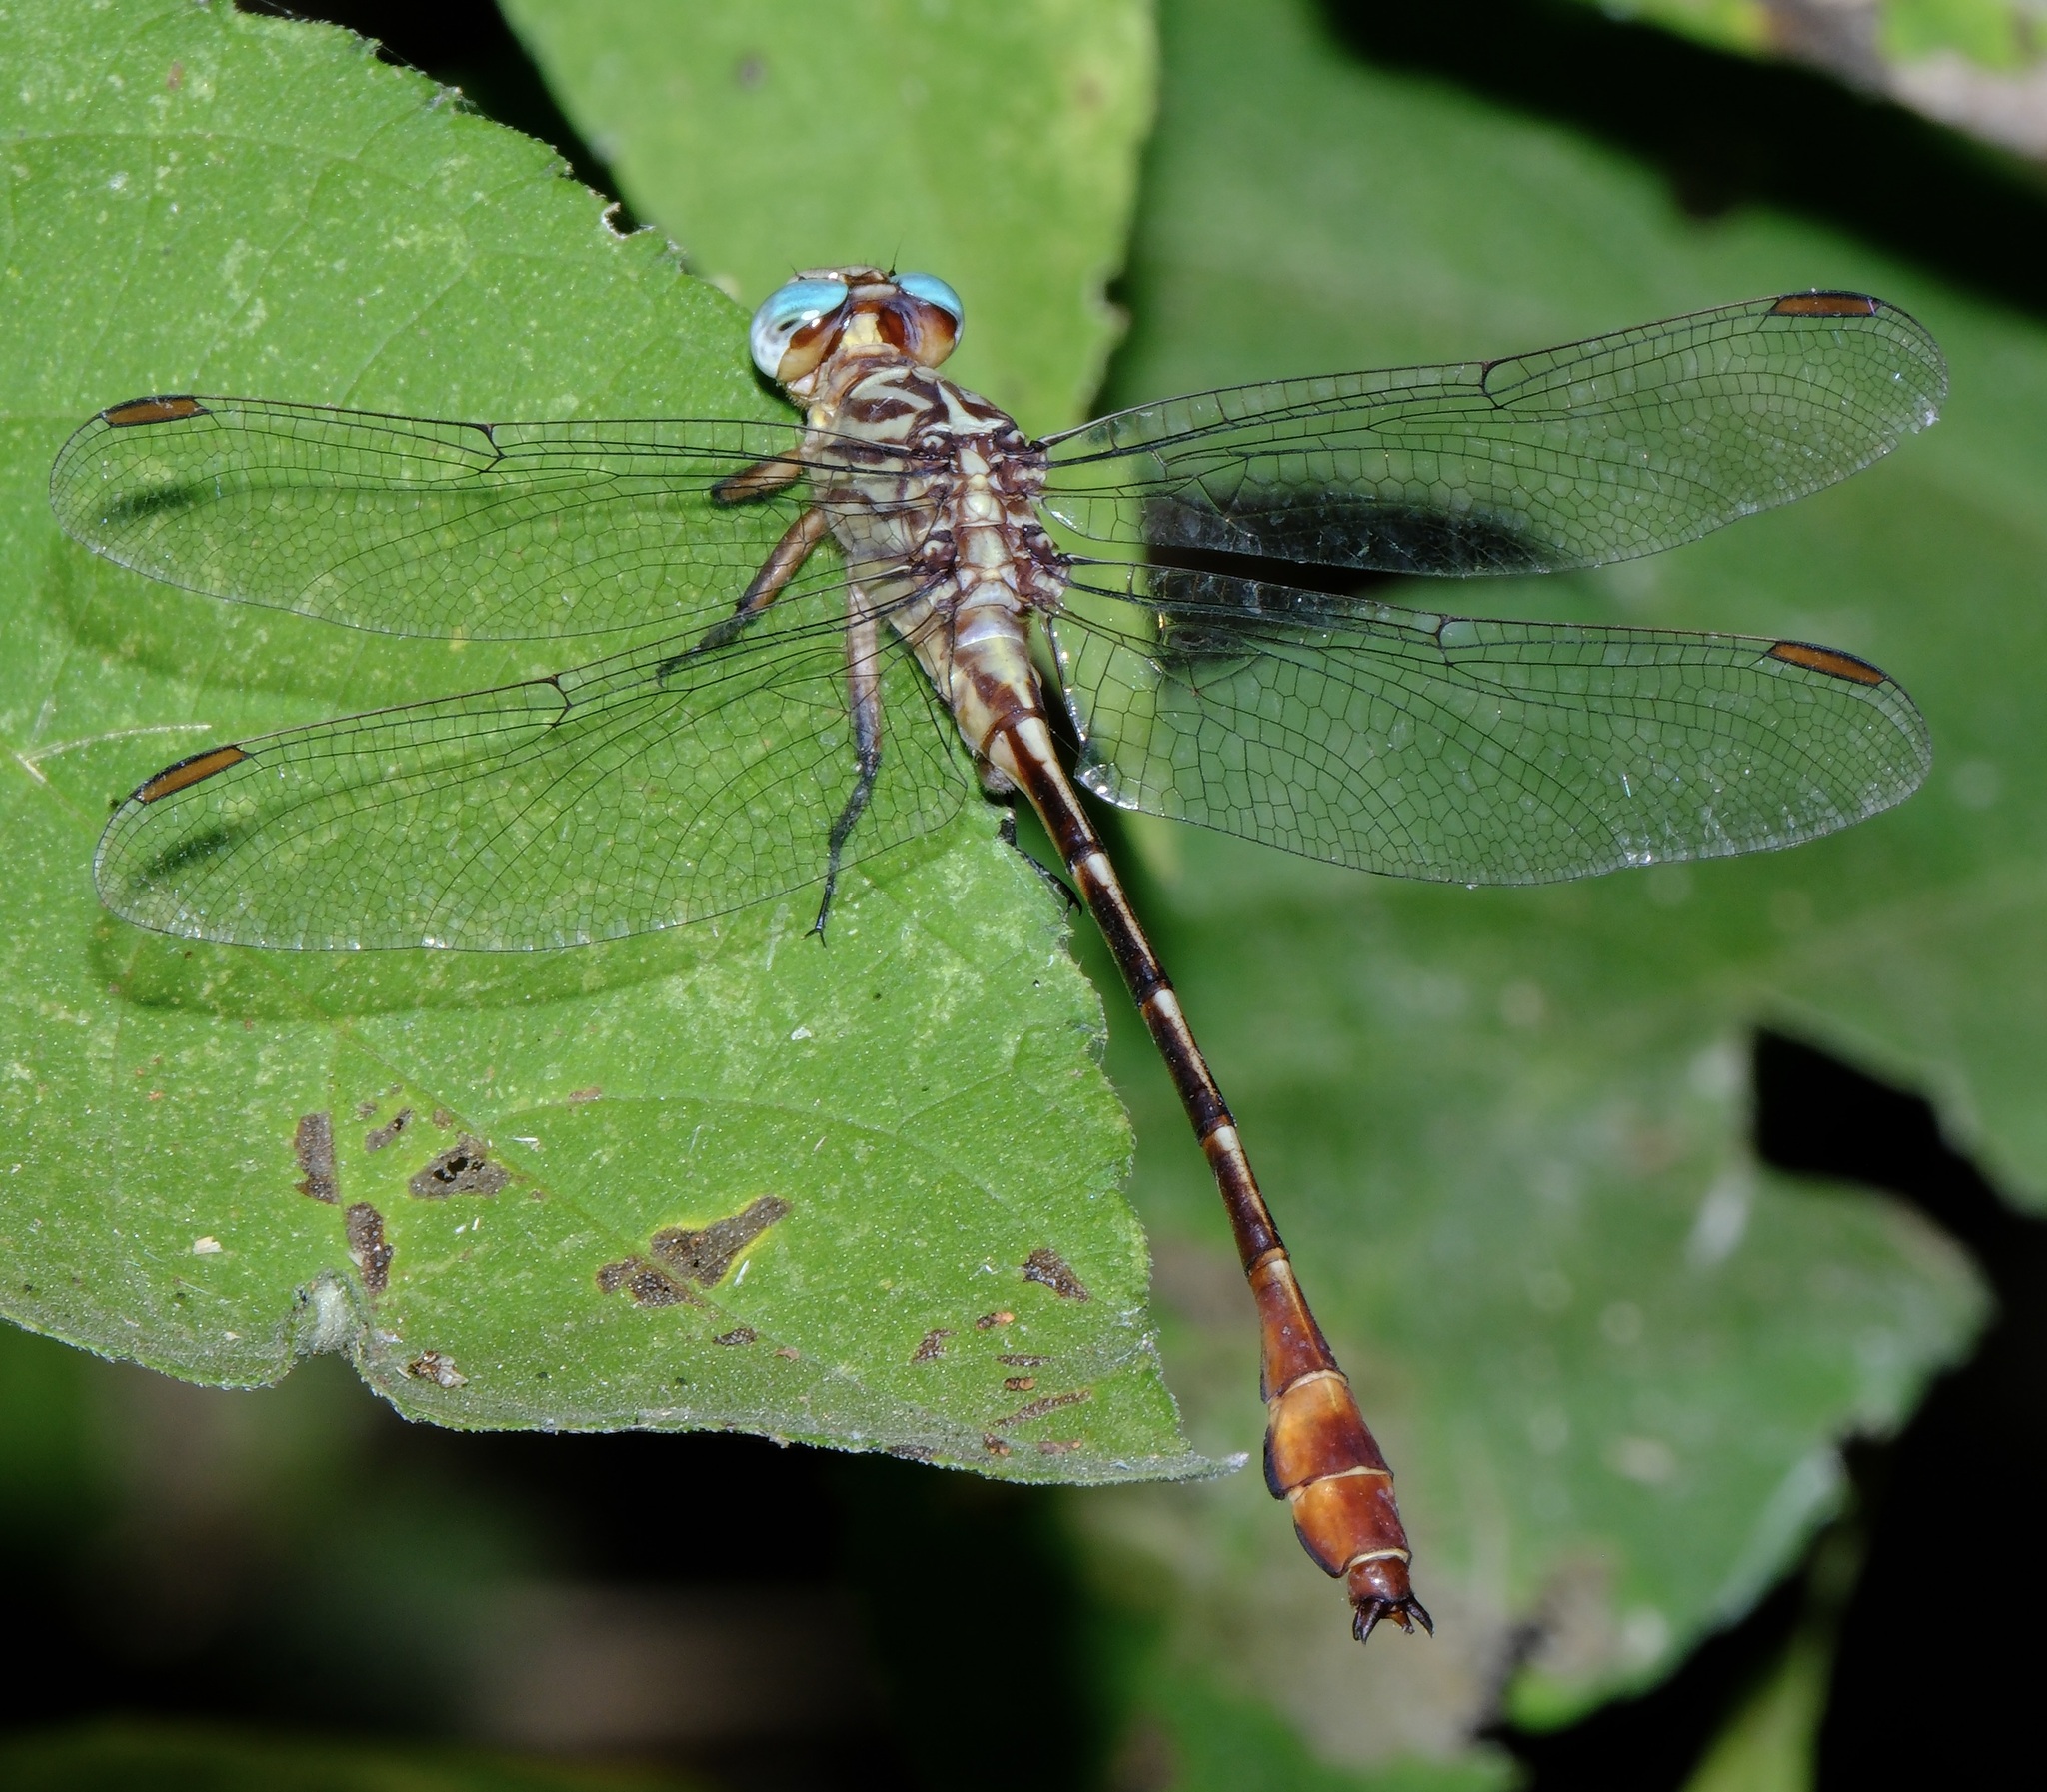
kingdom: Animalia
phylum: Arthropoda
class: Insecta
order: Odonata
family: Gomphidae
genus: Stylurus
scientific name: Stylurus plagiatus
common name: Russet-tipped clubtail
